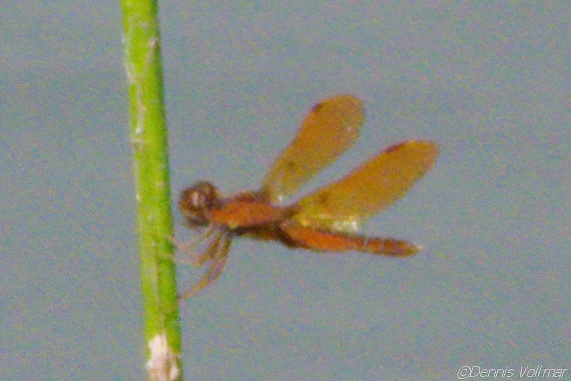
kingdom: Animalia
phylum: Arthropoda
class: Insecta
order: Odonata
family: Libellulidae
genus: Perithemis
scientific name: Perithemis tenera
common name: Eastern amberwing
